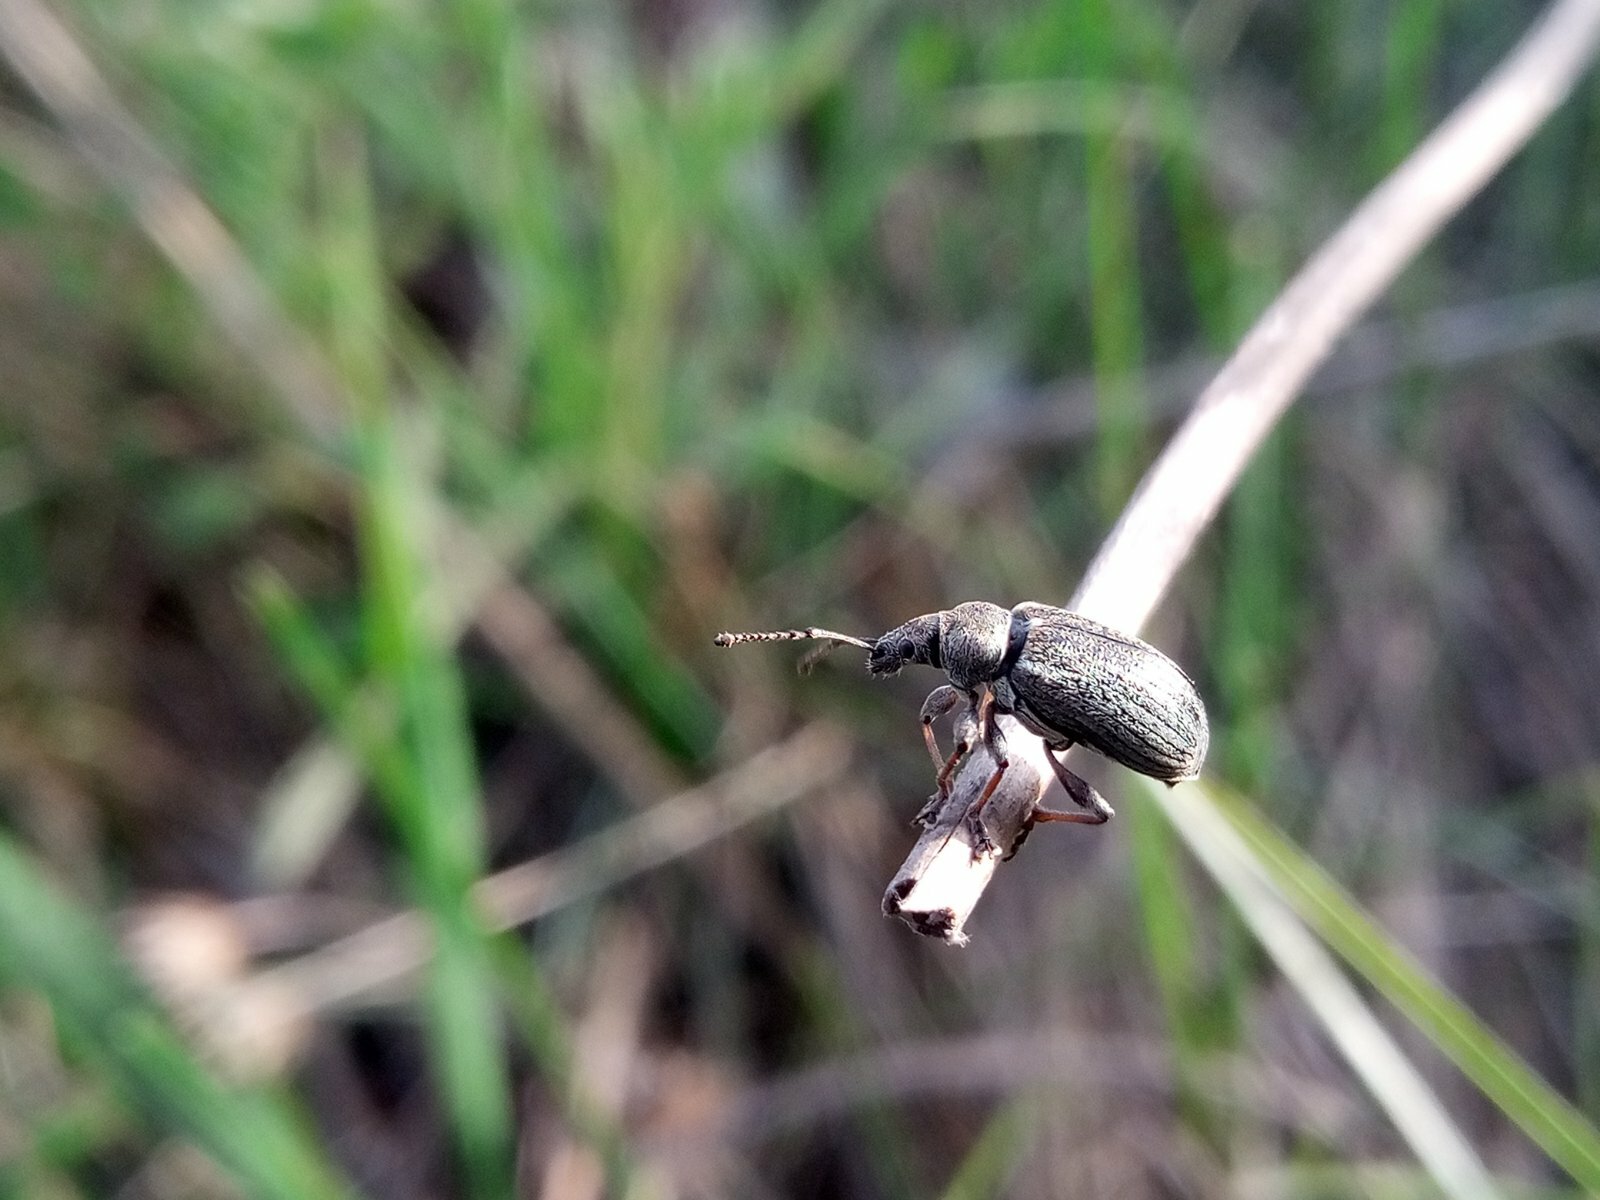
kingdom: Animalia
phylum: Arthropoda
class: Insecta
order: Coleoptera
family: Curculionidae
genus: Phyllobius
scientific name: Phyllobius pyri
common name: Common leaf weevil
